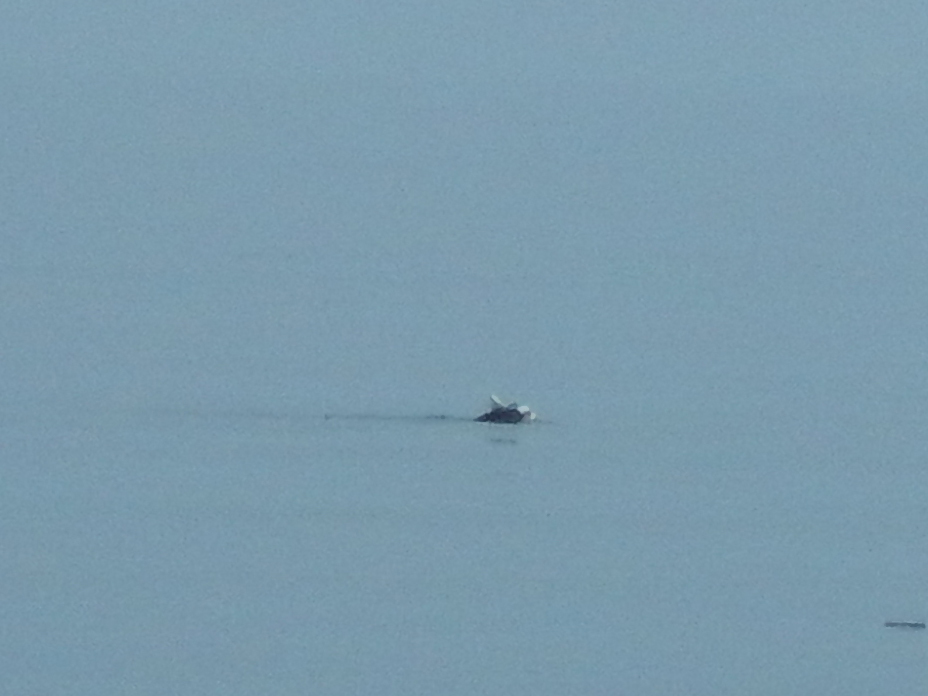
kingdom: Animalia
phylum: Chordata
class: Mammalia
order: Carnivora
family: Phocidae
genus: Monachus
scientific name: Monachus monachus
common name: Mediterranean monk seal
